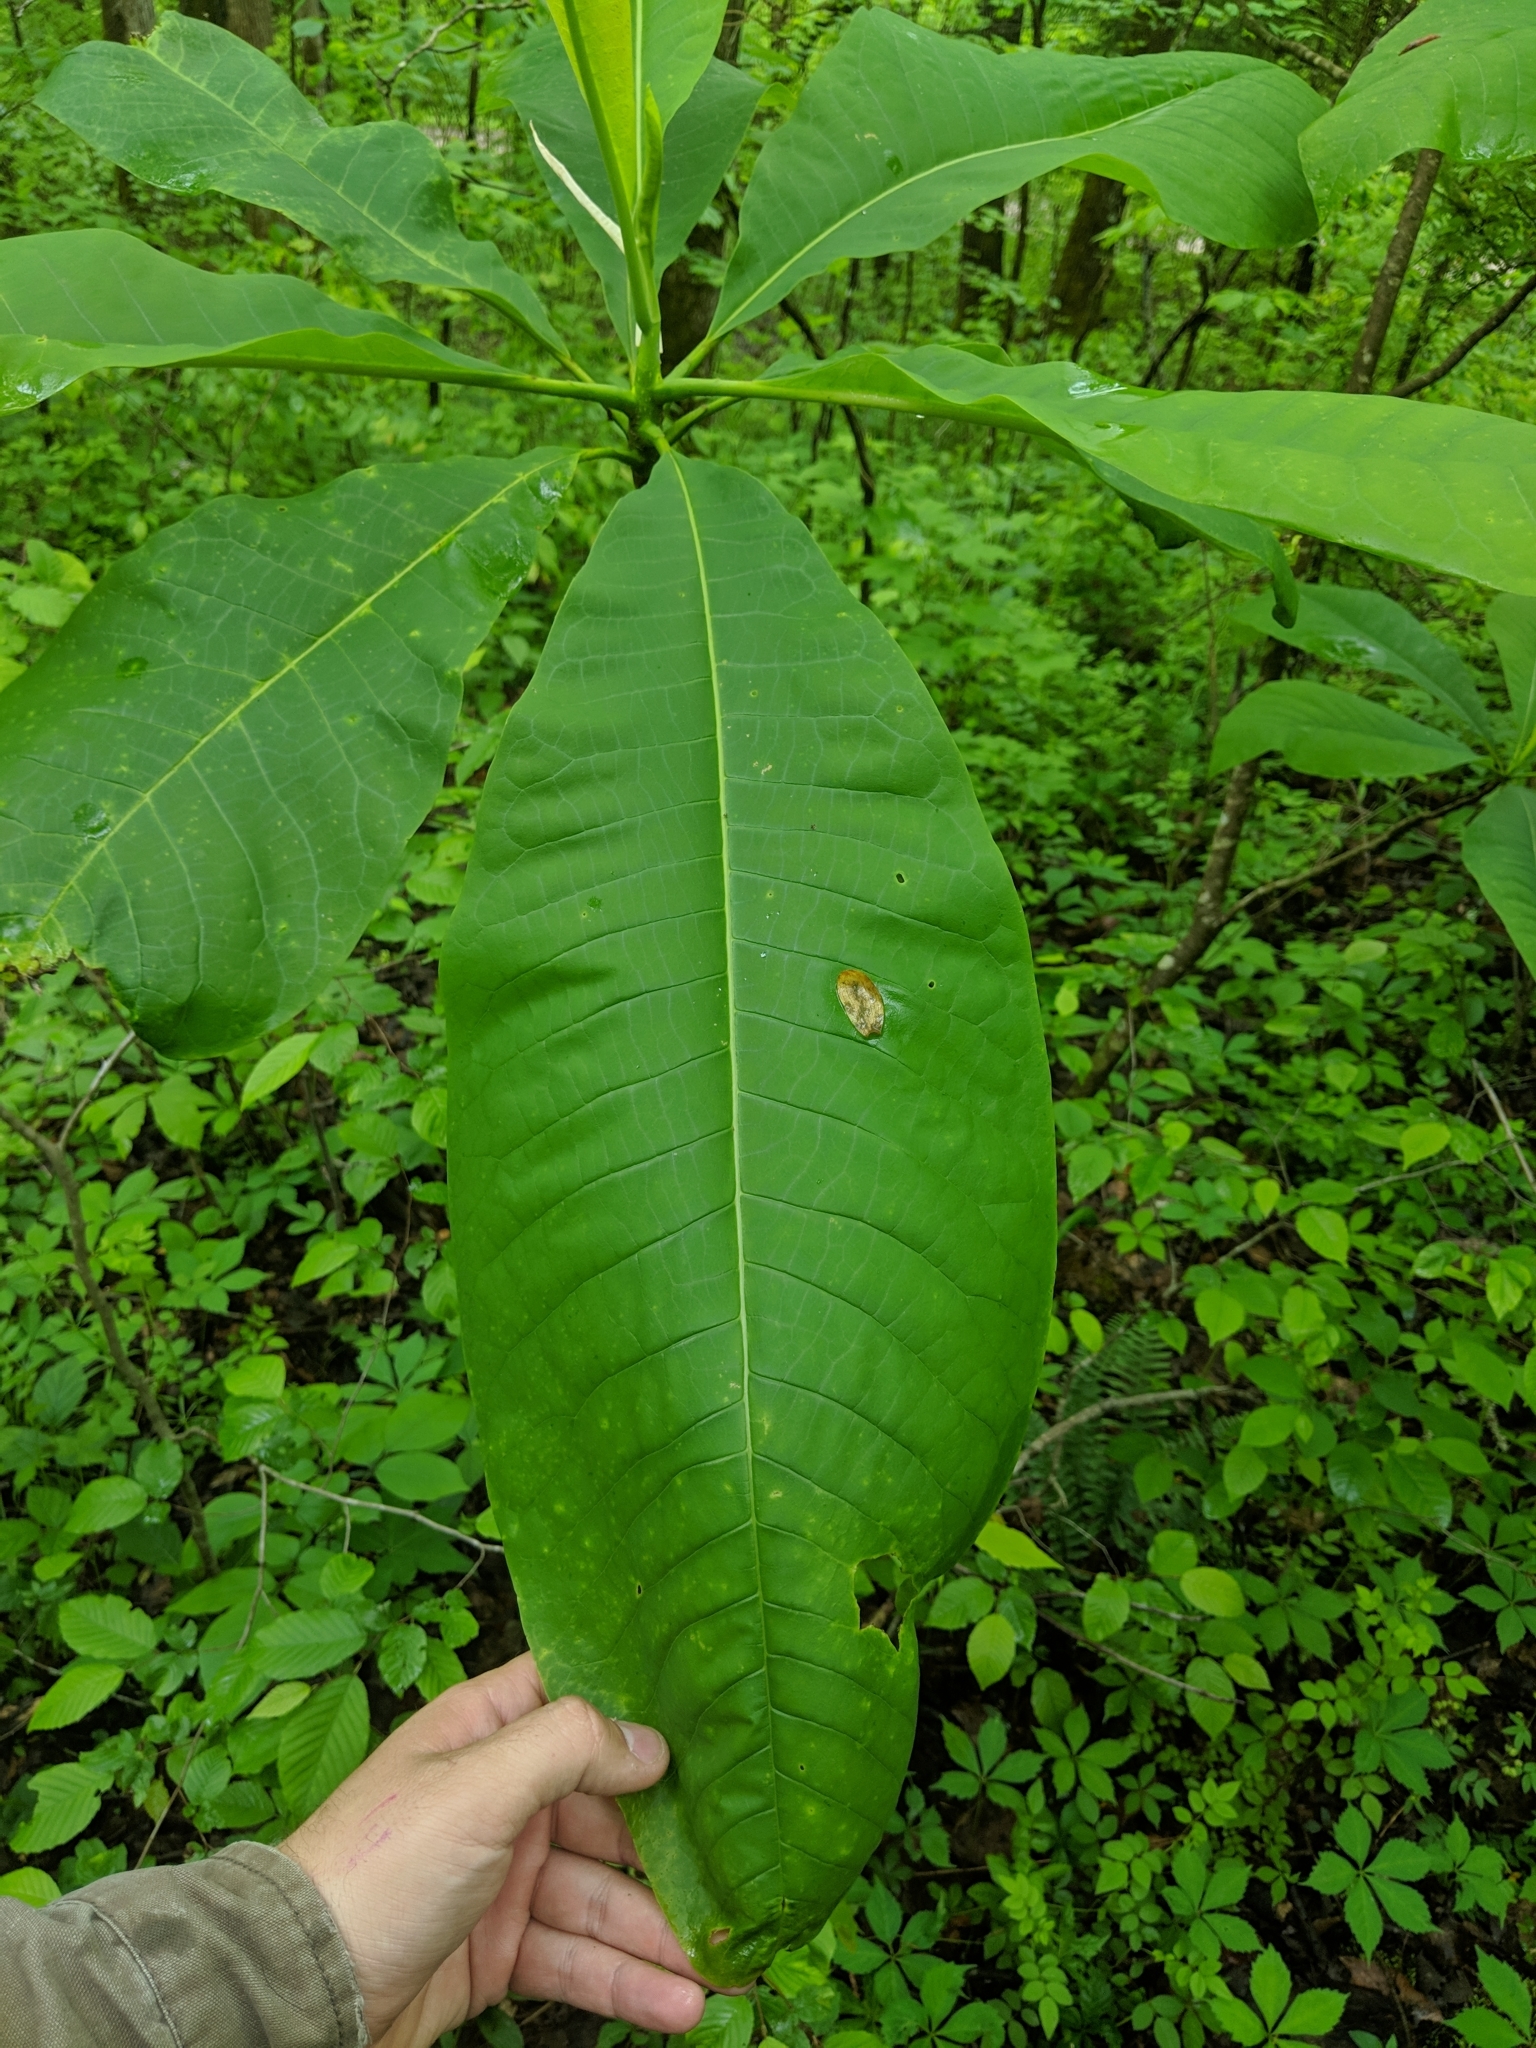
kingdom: Plantae
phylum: Tracheophyta
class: Magnoliopsida
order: Magnoliales
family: Magnoliaceae
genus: Magnolia
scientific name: Magnolia tripetala
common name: Umbrella magnolia
